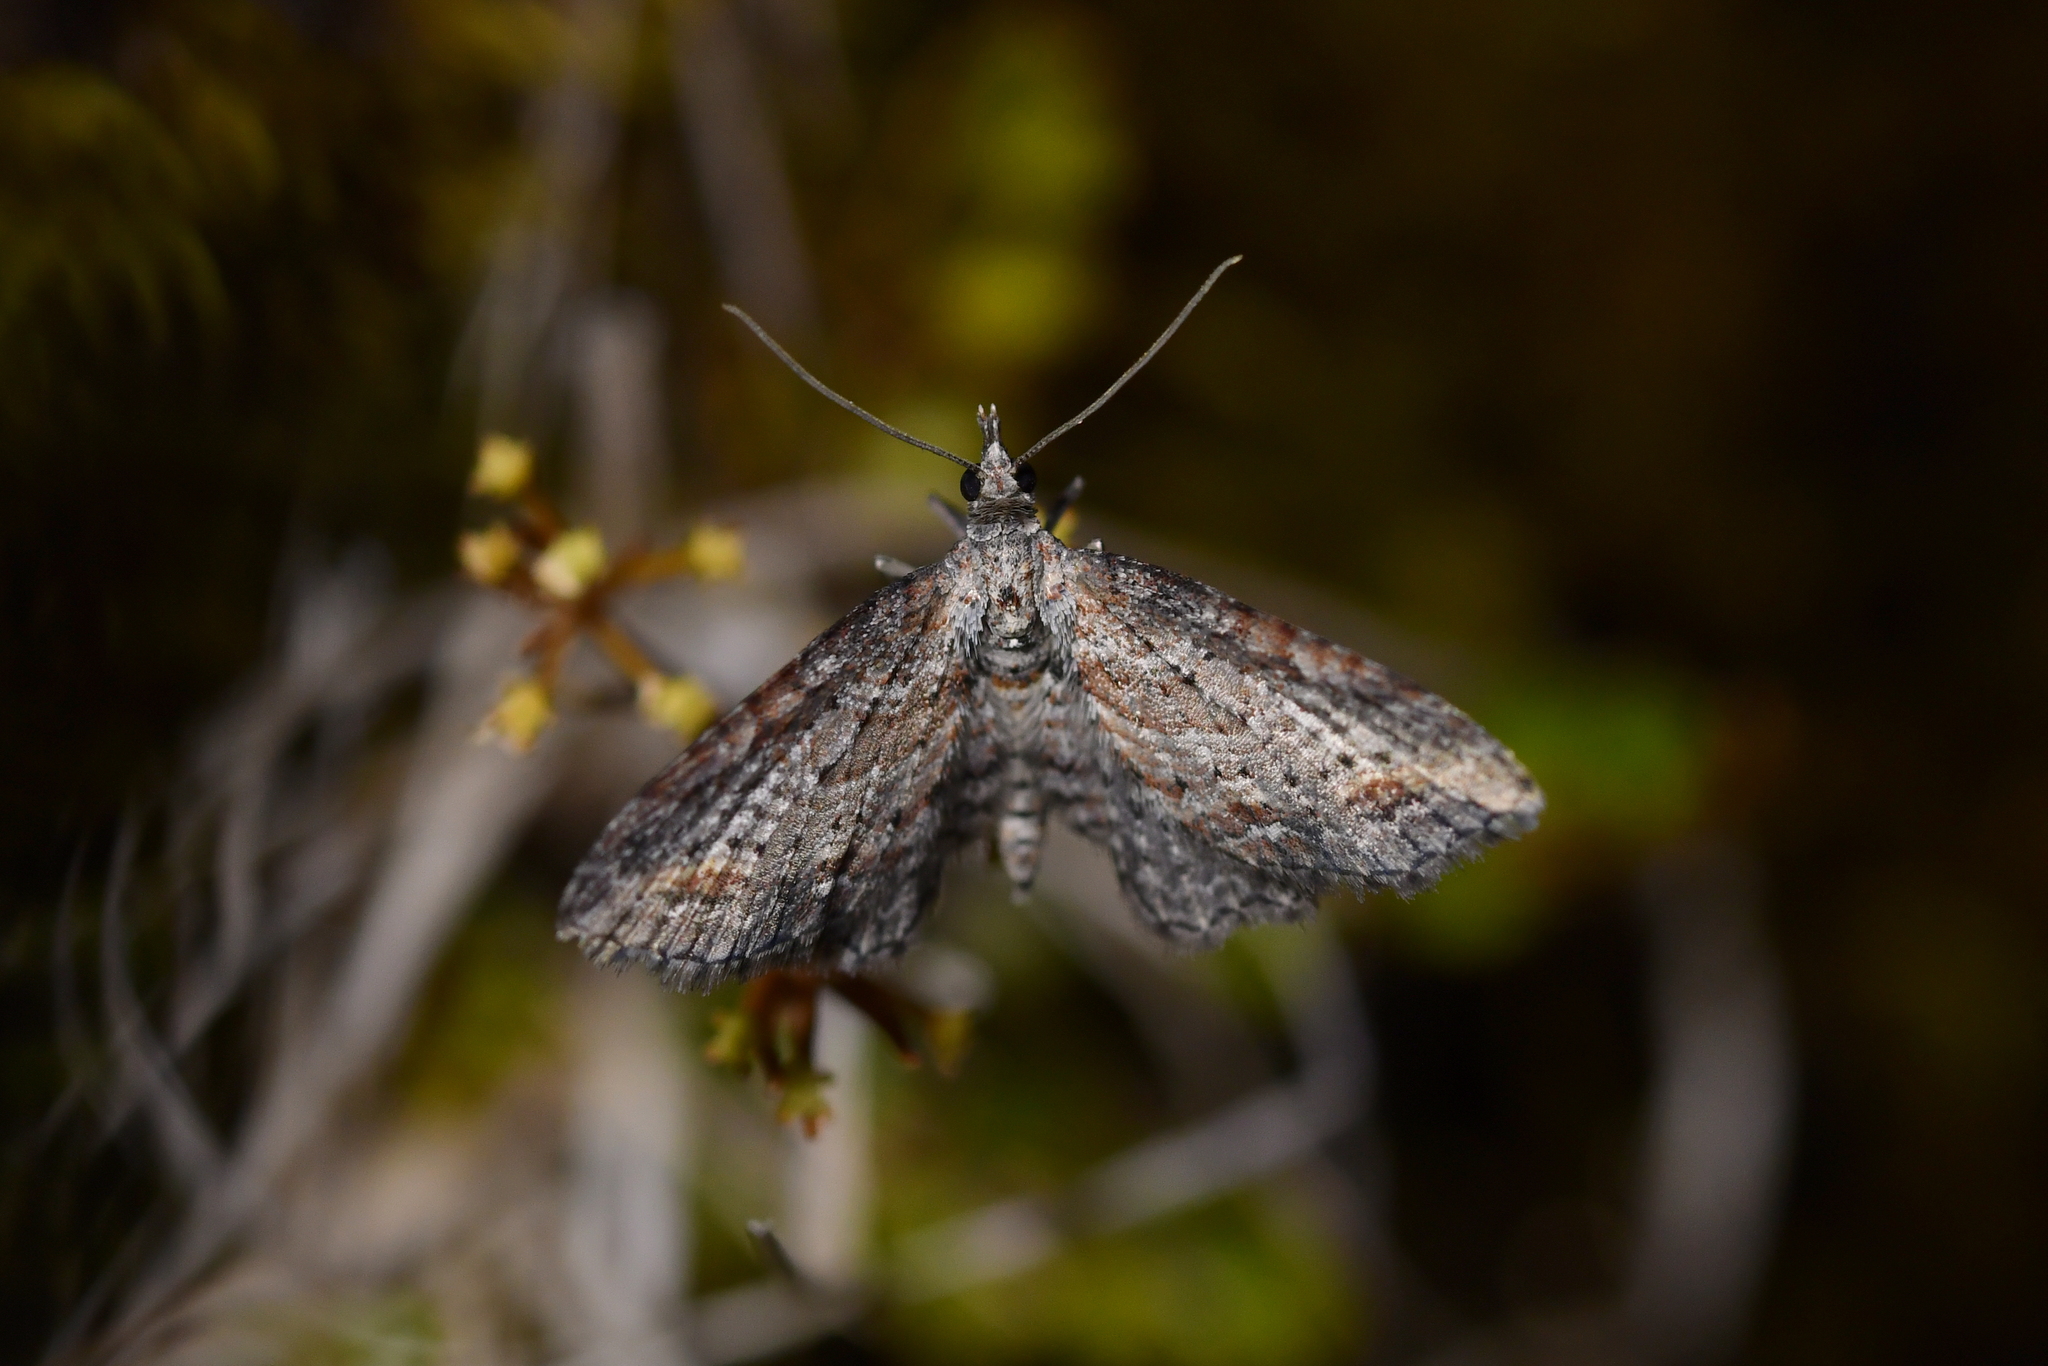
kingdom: Animalia
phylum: Arthropoda
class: Insecta
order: Lepidoptera
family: Geometridae
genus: Pasiphila
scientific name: Pasiphila humilis
